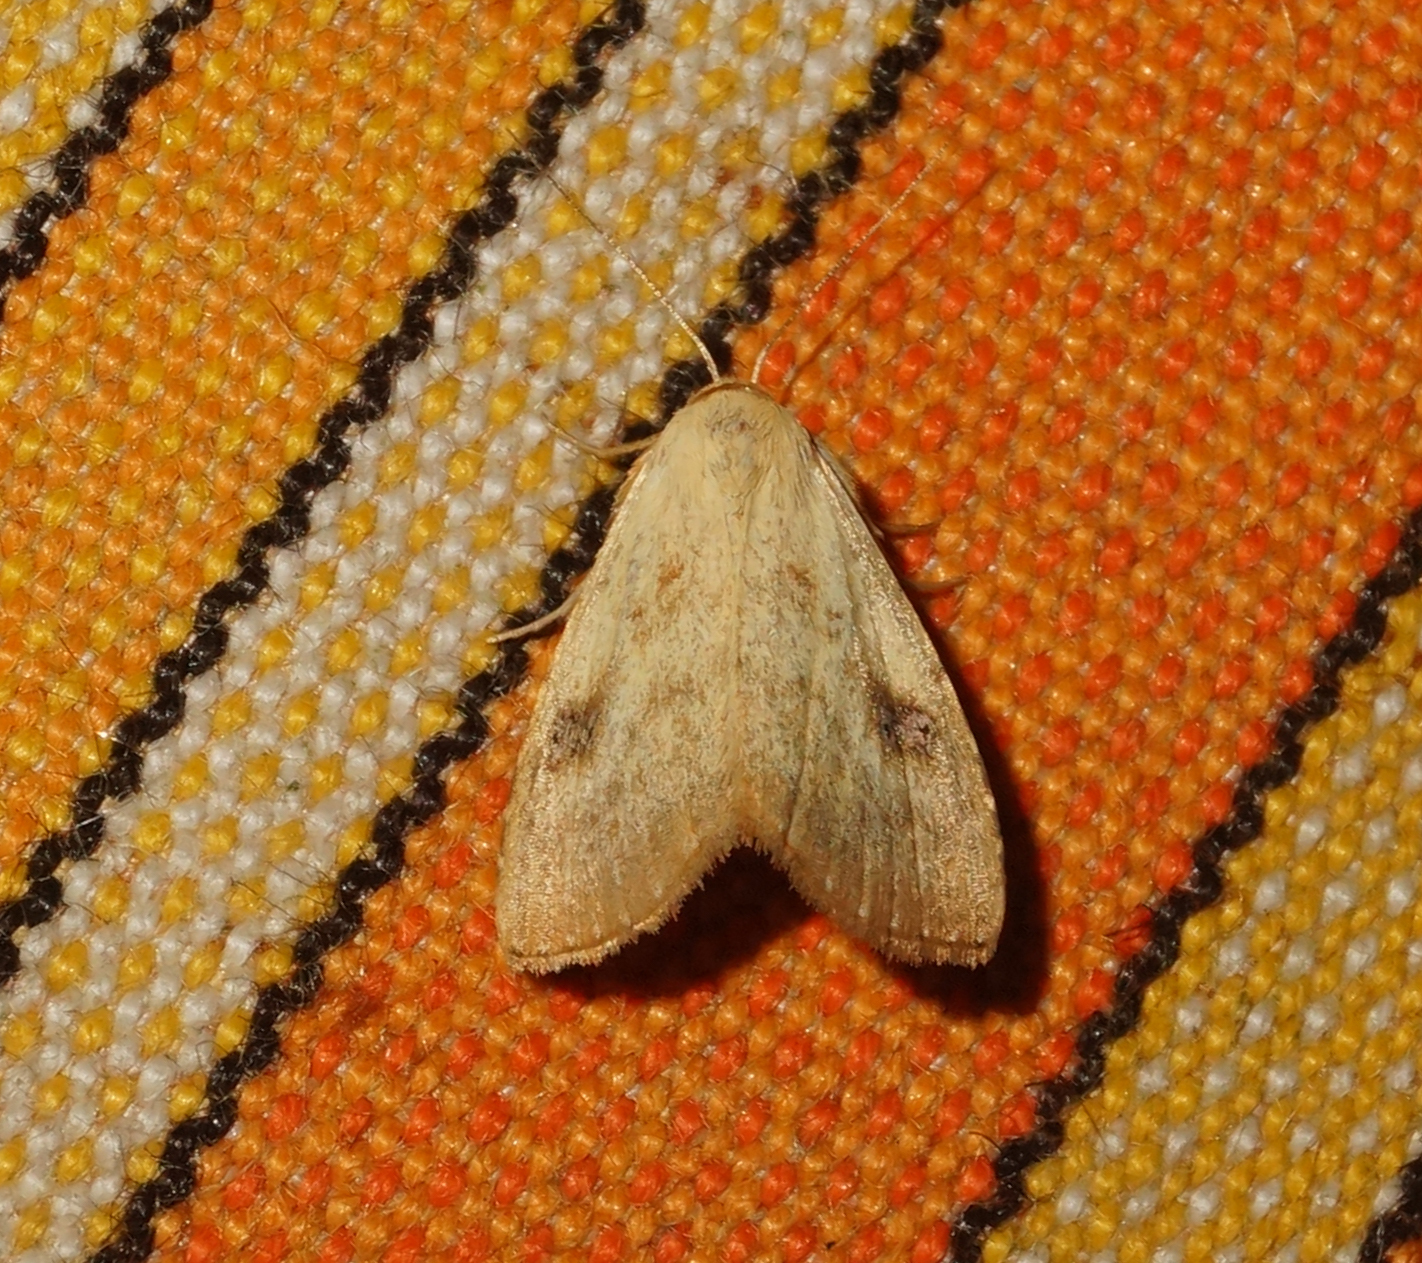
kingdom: Animalia
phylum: Arthropoda
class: Insecta
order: Lepidoptera
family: Erebidae
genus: Rivula
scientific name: Rivula sericealis
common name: Straw dot
